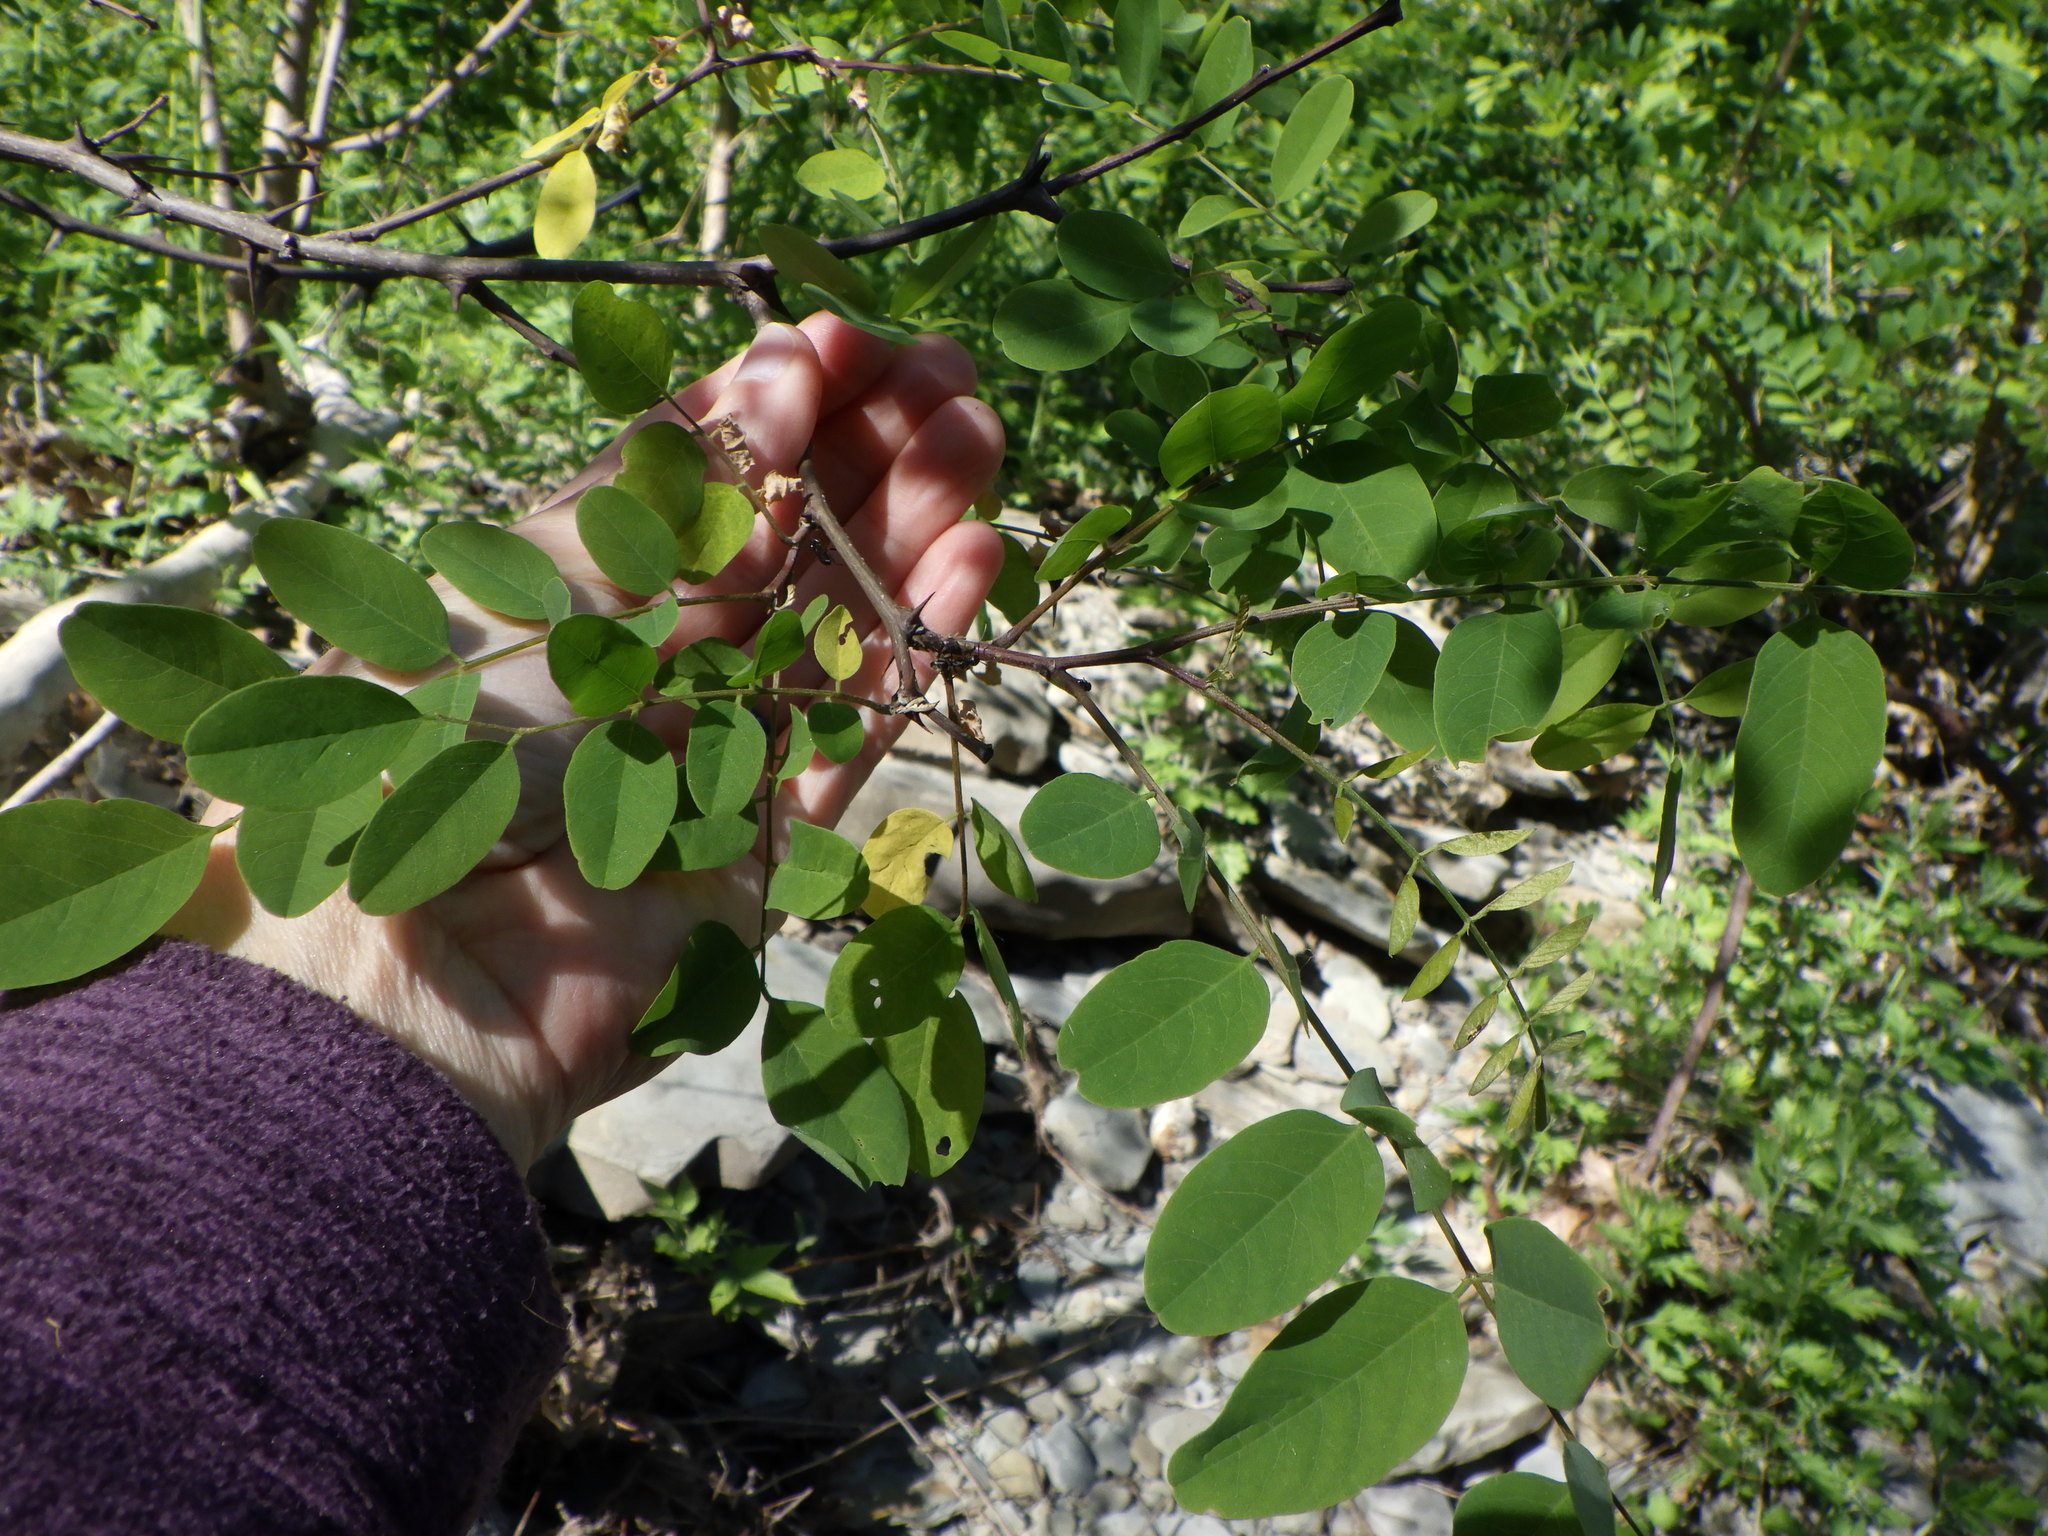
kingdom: Plantae
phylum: Tracheophyta
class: Magnoliopsida
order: Fabales
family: Fabaceae
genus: Robinia
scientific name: Robinia pseudoacacia
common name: Black locust
